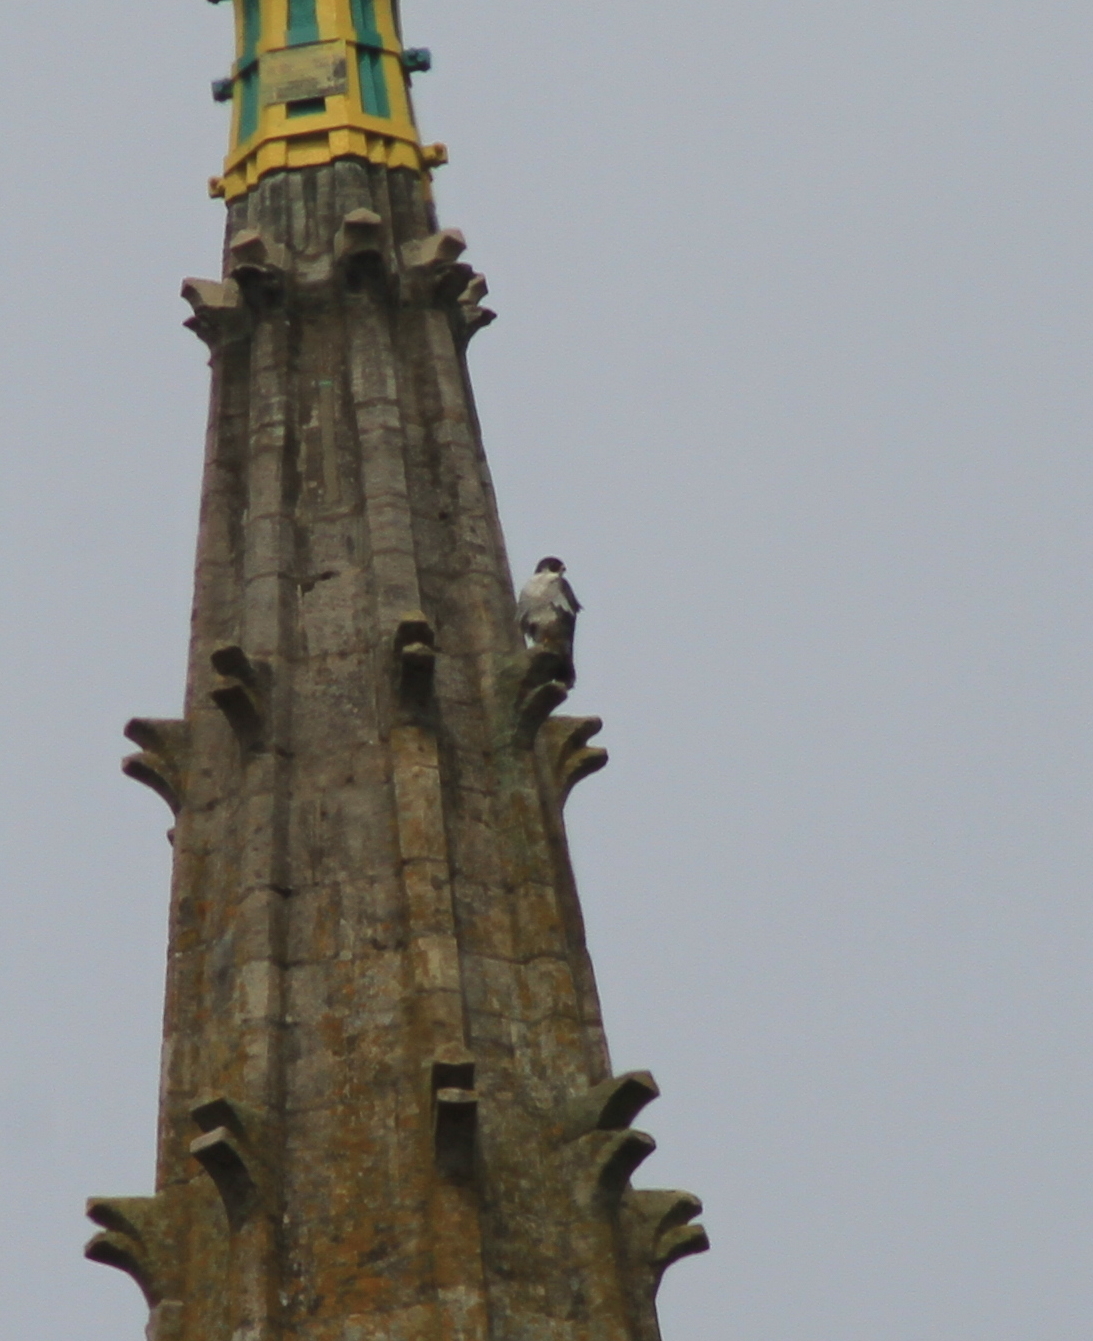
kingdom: Animalia
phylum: Chordata
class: Aves
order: Falconiformes
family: Falconidae
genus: Falco
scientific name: Falco peregrinus
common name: Peregrine falcon
